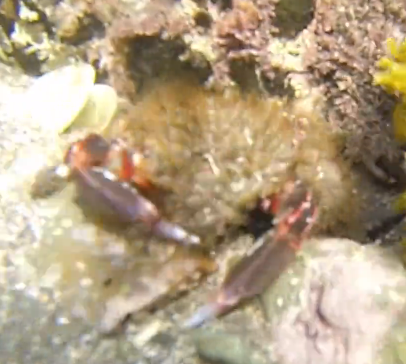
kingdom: Animalia
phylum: Arthropoda
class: Malacostraca
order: Decapoda
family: Majidae
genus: Notomithrax
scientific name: Notomithrax ursus
